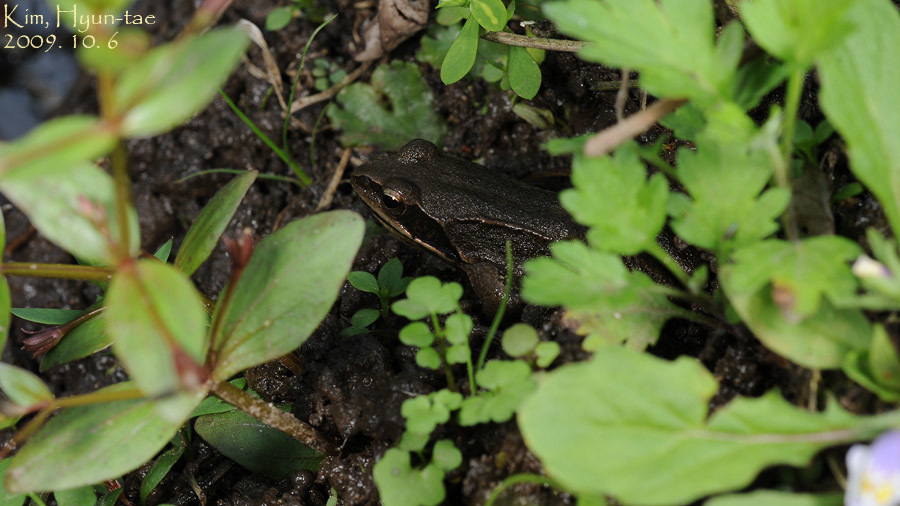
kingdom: Animalia
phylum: Chordata
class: Amphibia
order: Anura
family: Ranidae
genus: Rana
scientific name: Rana coreana
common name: Korean brown frog
